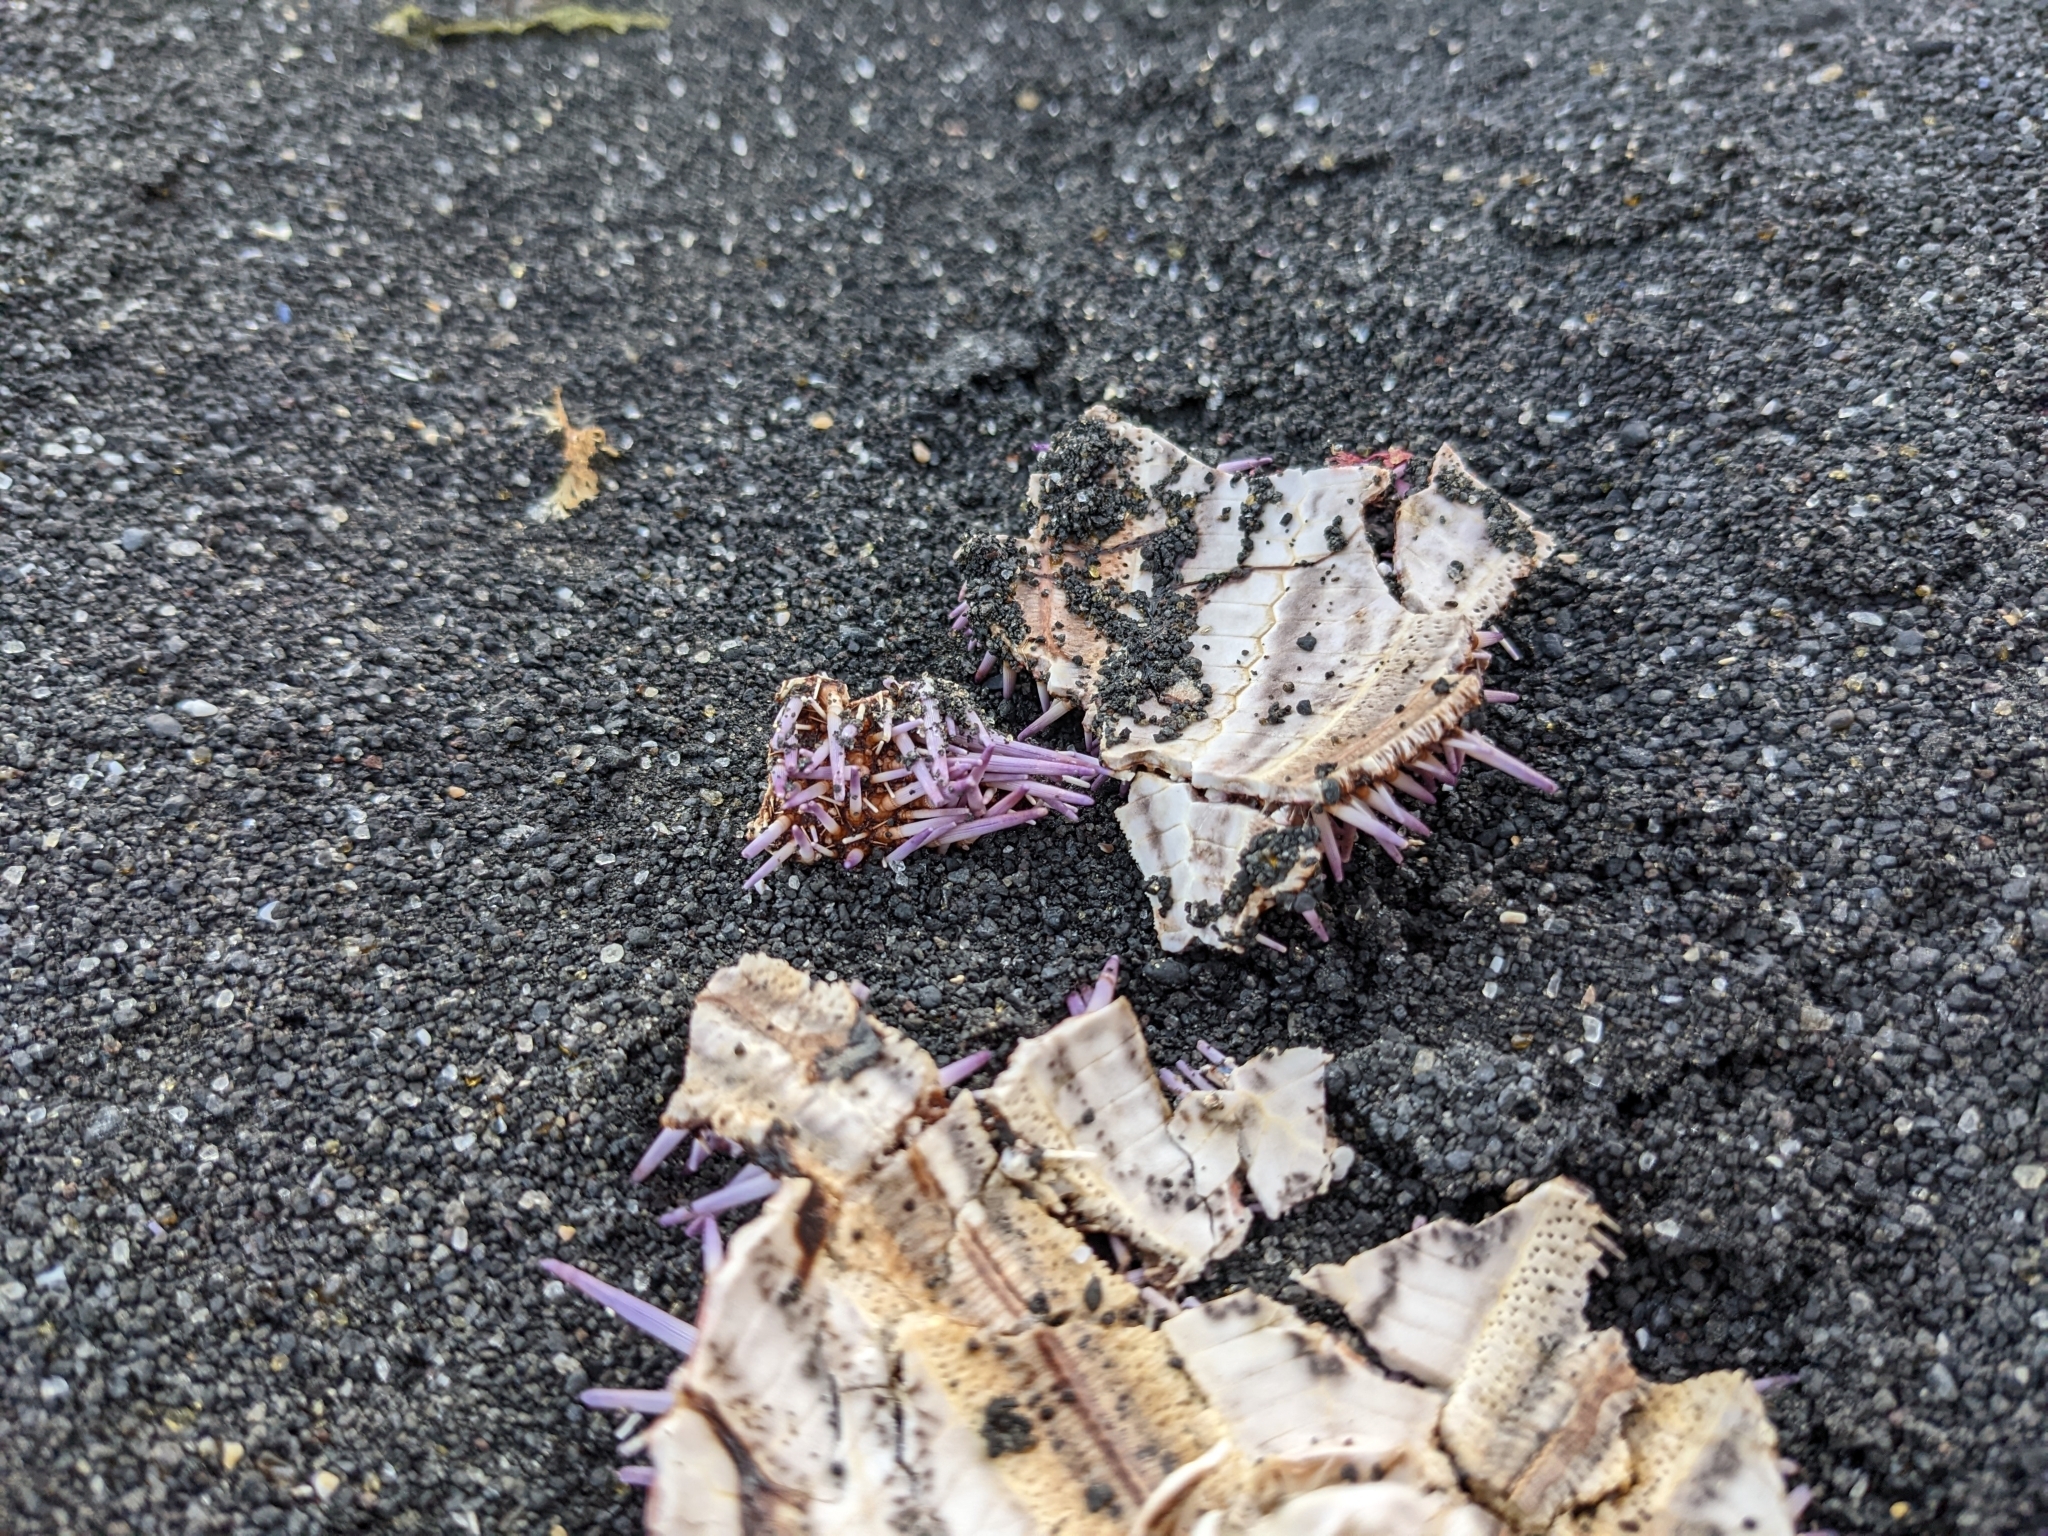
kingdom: Animalia
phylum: Echinodermata
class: Echinoidea
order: Camarodonta
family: Echinidae
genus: Echinus
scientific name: Echinus esculentus
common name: Edible sea urchin
